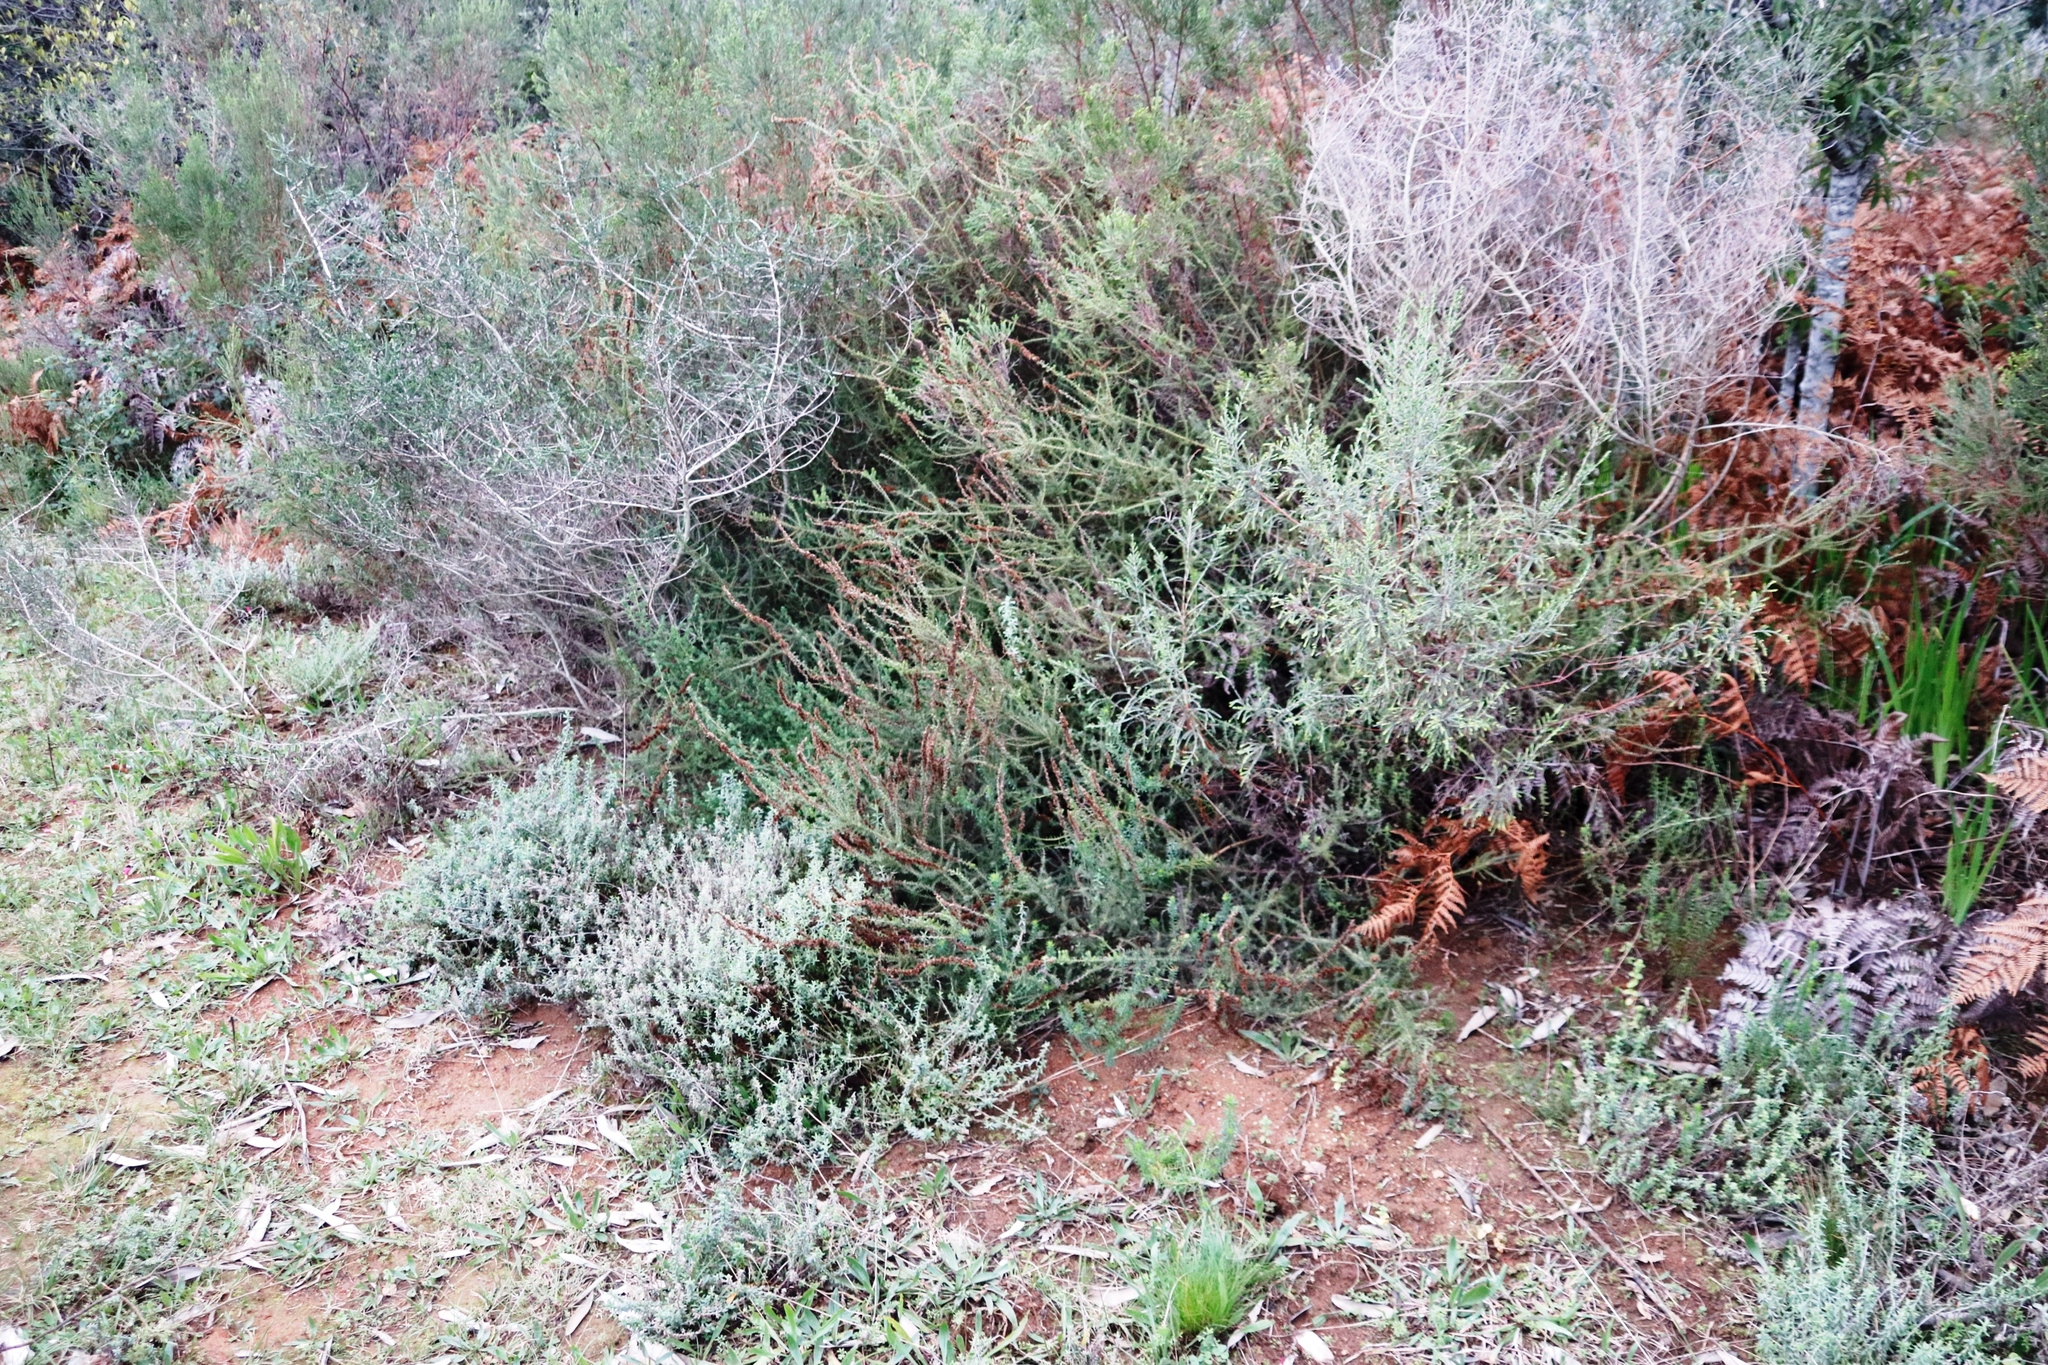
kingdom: Plantae
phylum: Tracheophyta
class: Magnoliopsida
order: Asterales
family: Asteraceae
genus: Seriphium
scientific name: Seriphium cinereum
